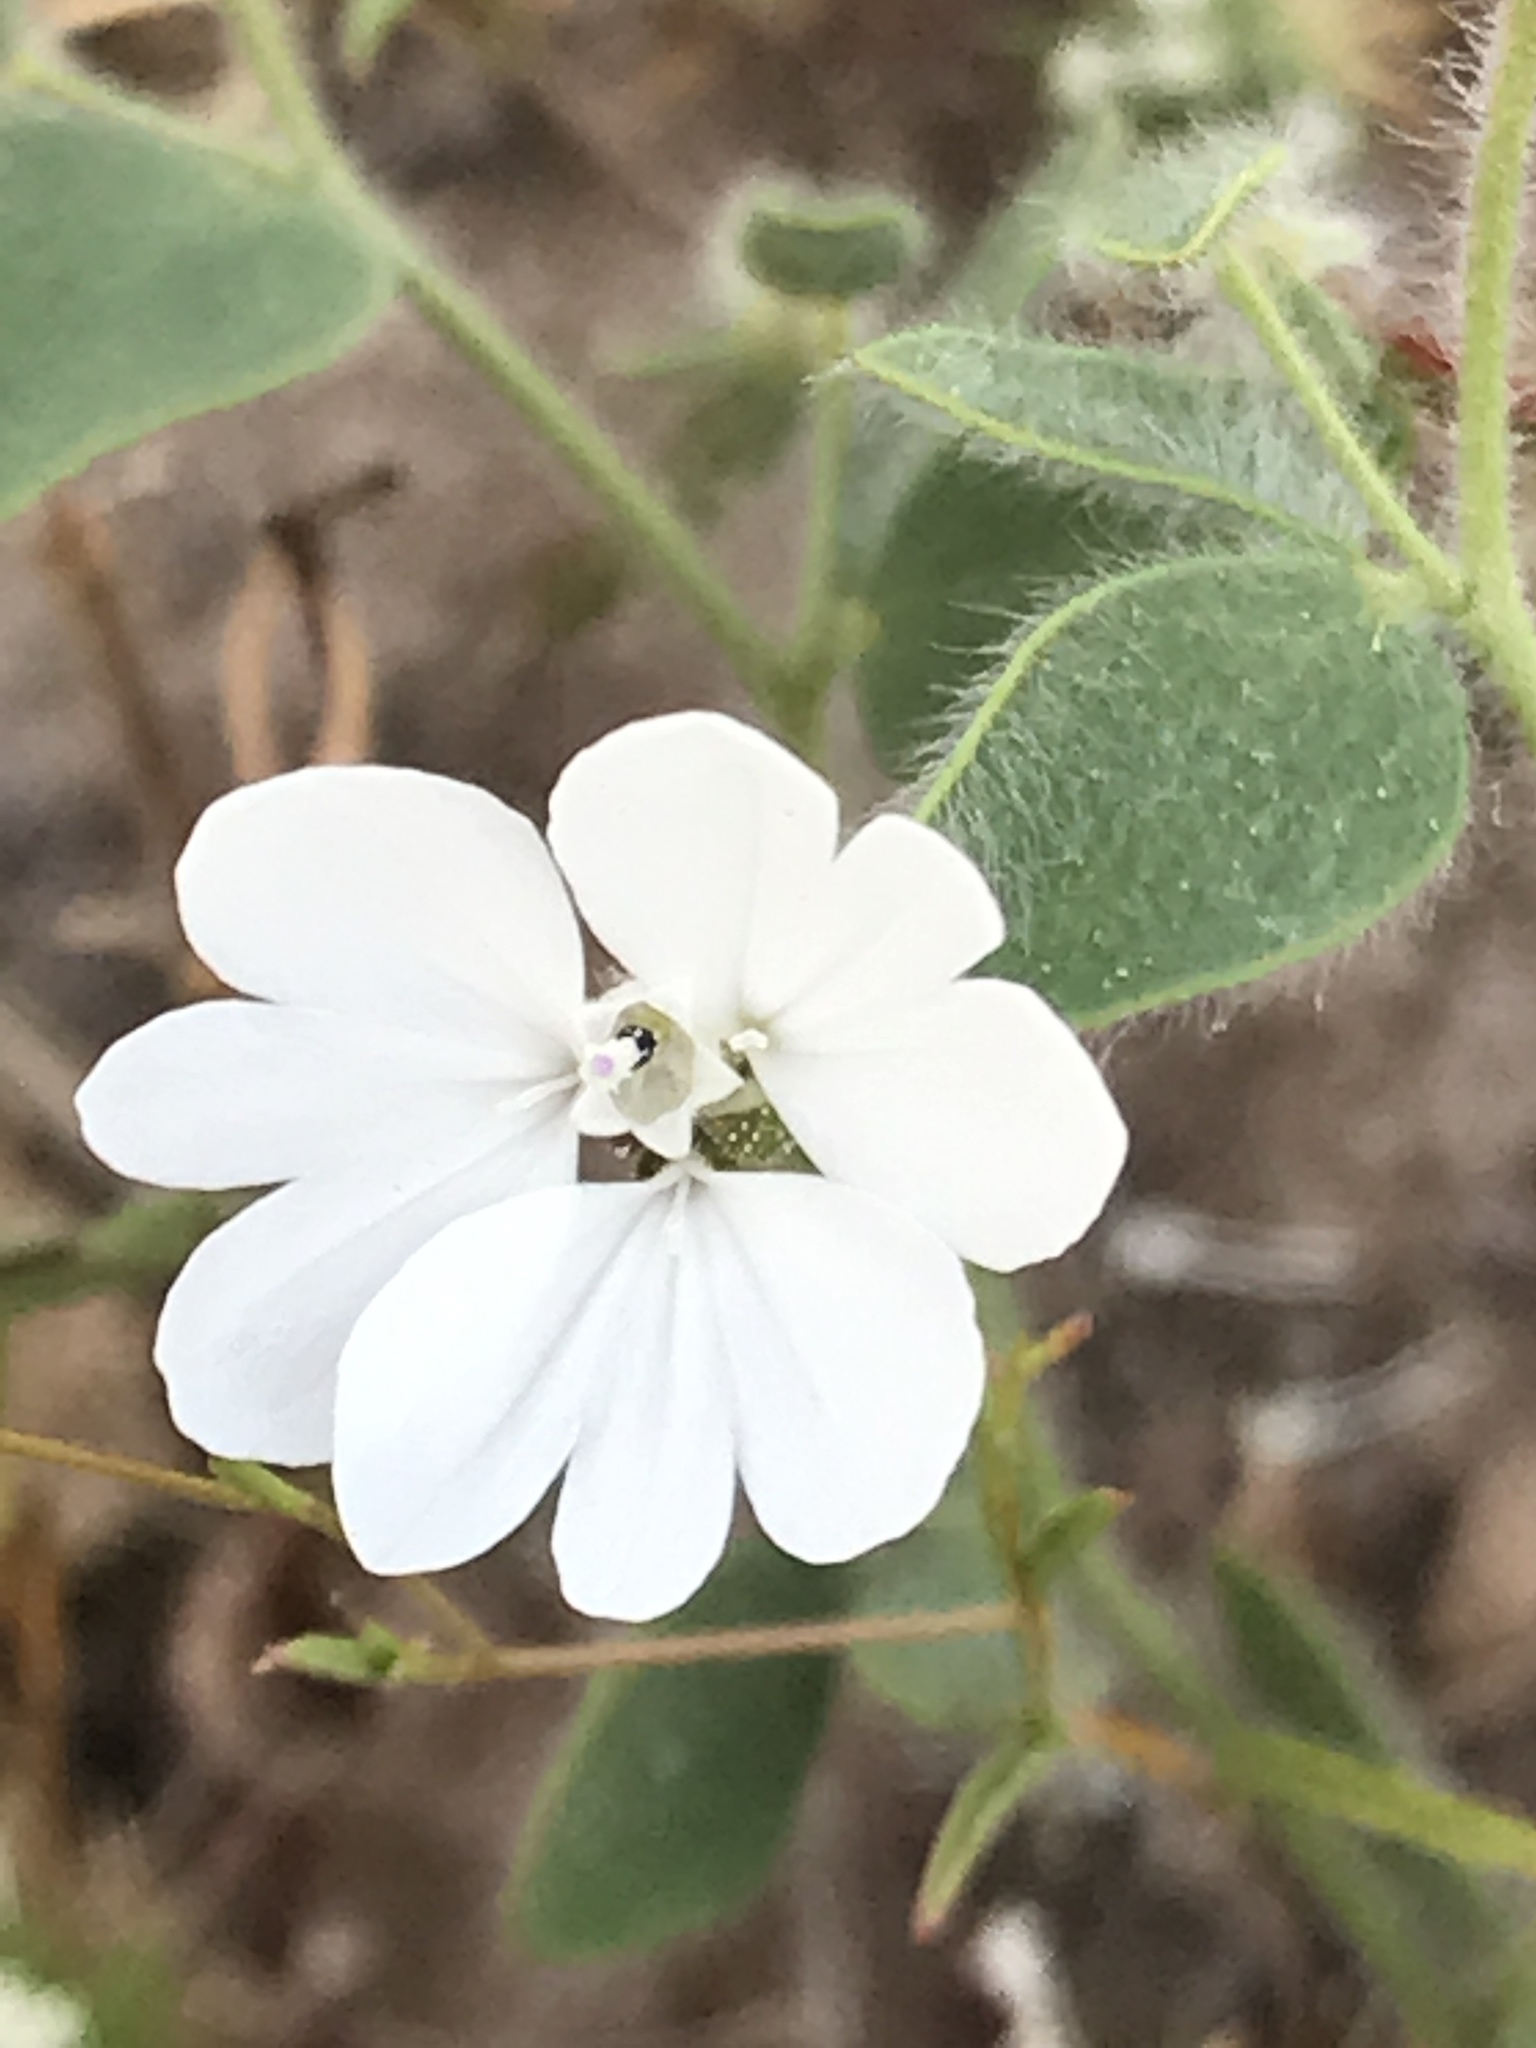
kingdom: Plantae
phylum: Tracheophyta
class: Magnoliopsida
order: Asterales
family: Asteraceae
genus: Blepharipappus
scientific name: Blepharipappus scaber
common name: Rough blepharipappus
